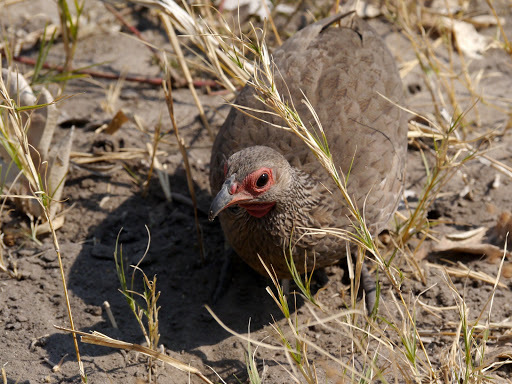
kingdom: Animalia
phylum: Chordata
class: Aves
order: Galliformes
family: Phasianidae
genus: Pternistis
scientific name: Pternistis swainsonii
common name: Swainson's spurfowl
